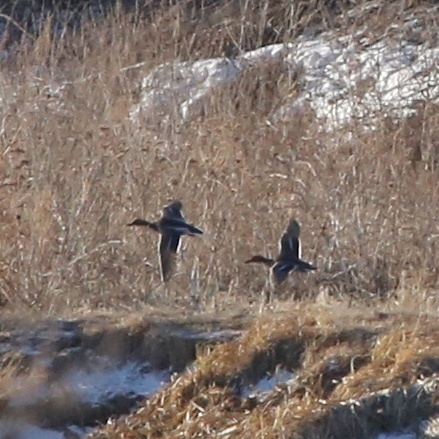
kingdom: Animalia
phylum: Chordata
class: Aves
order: Anseriformes
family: Anatidae
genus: Anas
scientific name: Anas platyrhynchos
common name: Mallard
